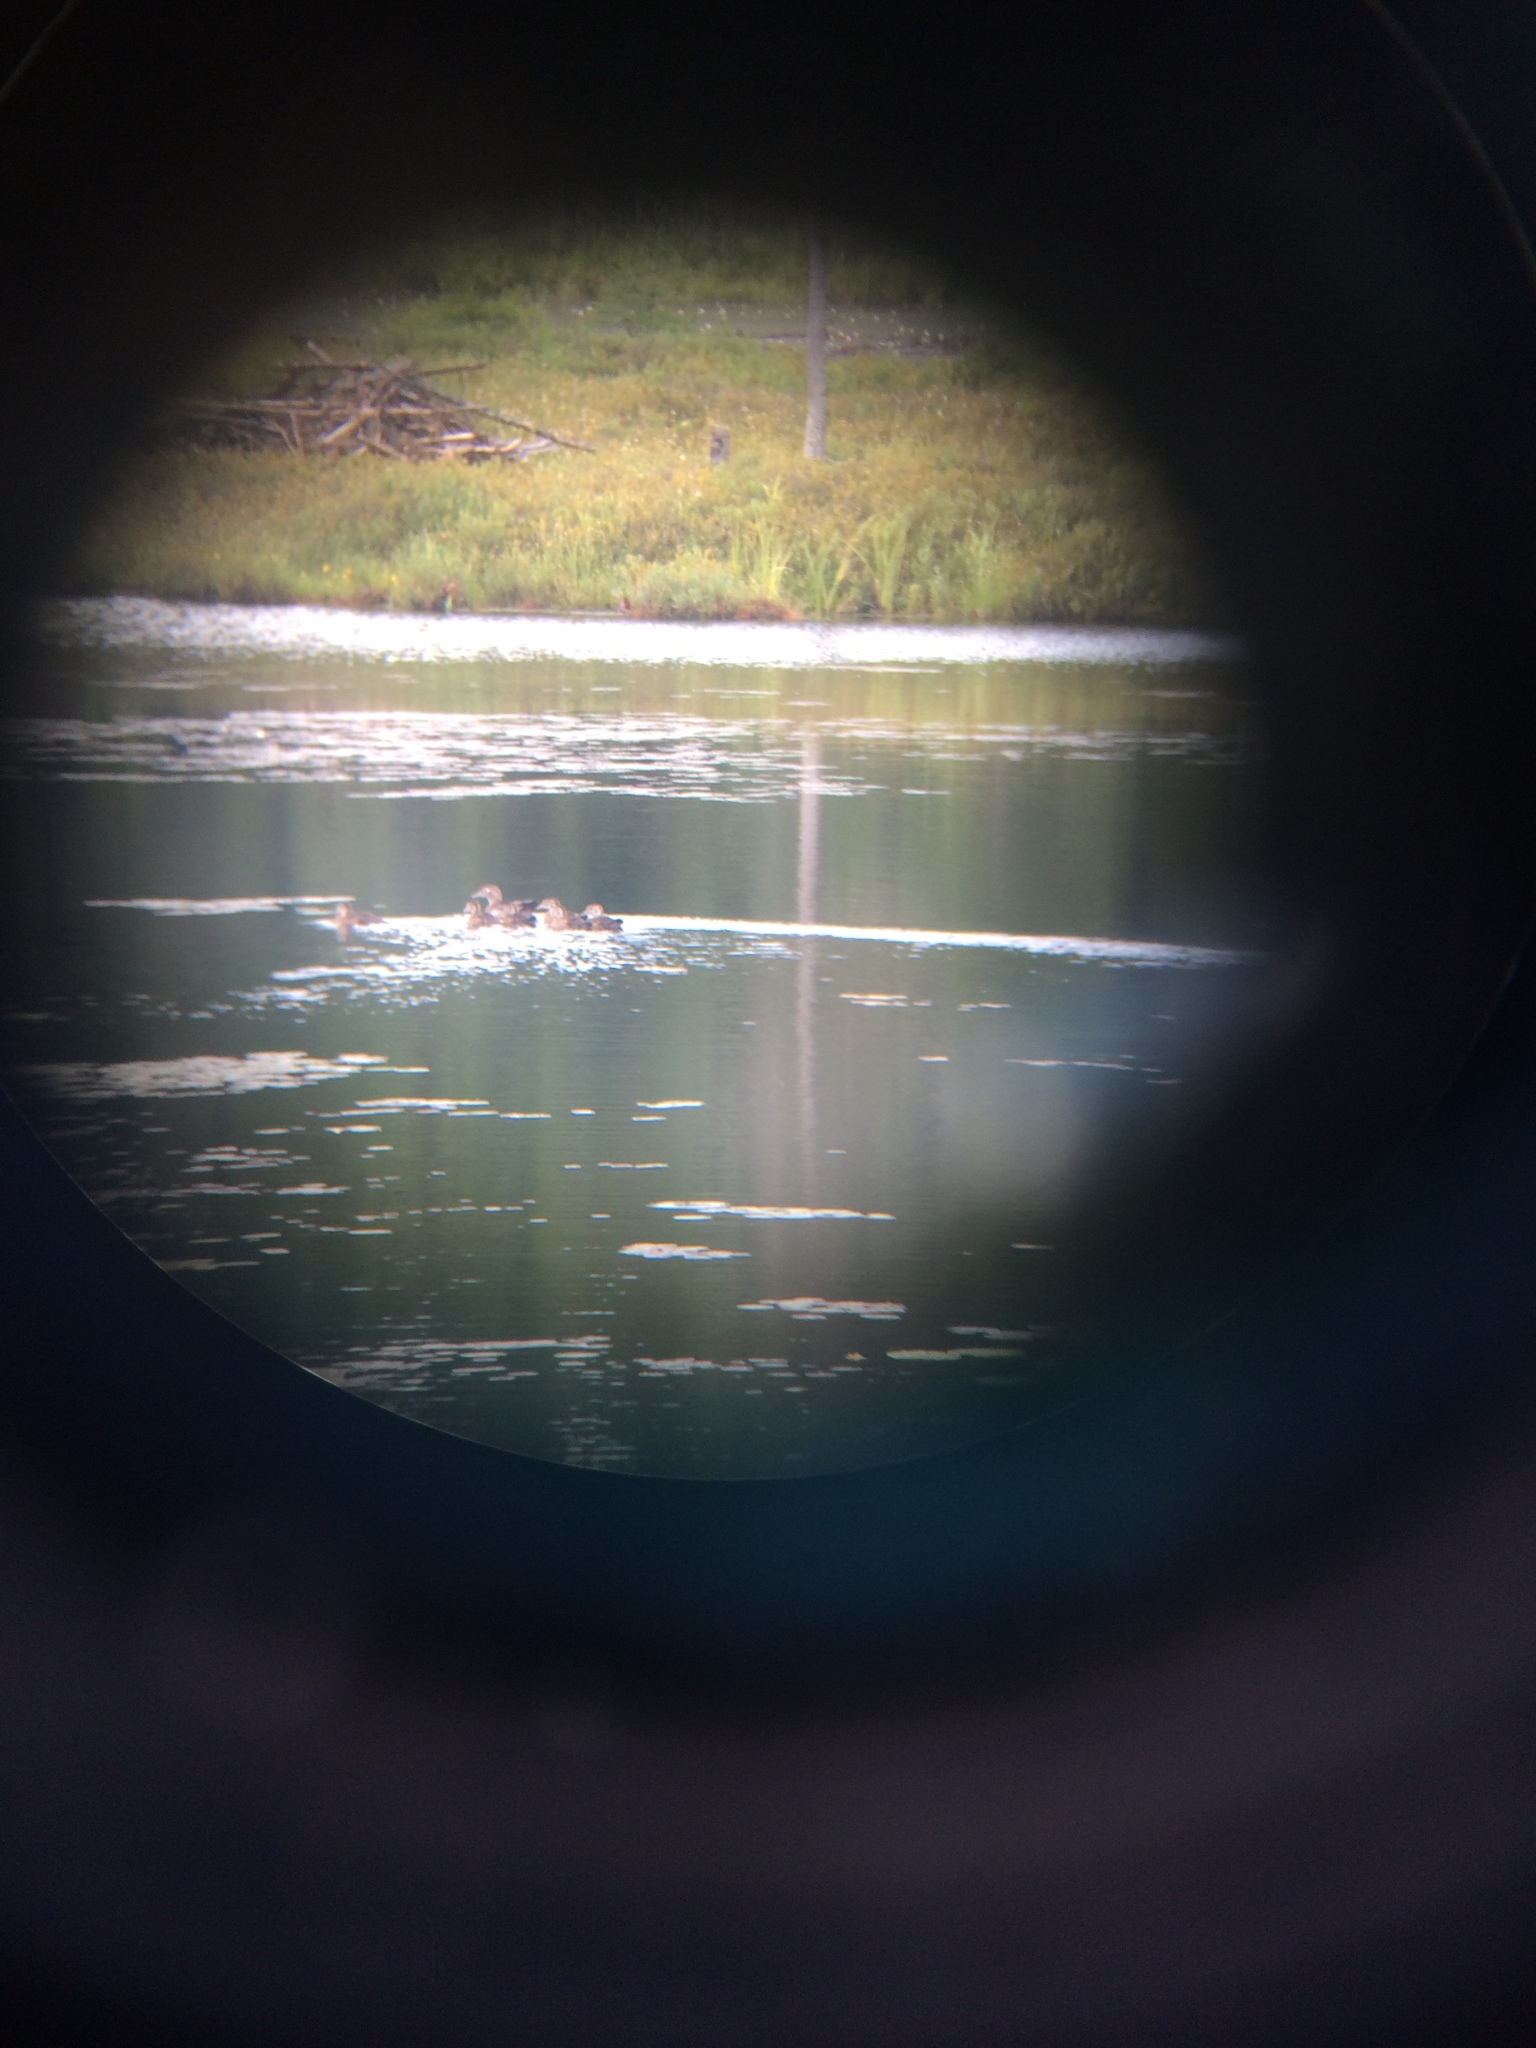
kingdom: Animalia
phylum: Chordata
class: Aves
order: Anseriformes
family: Anatidae
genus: Aix
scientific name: Aix sponsa
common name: Wood duck
